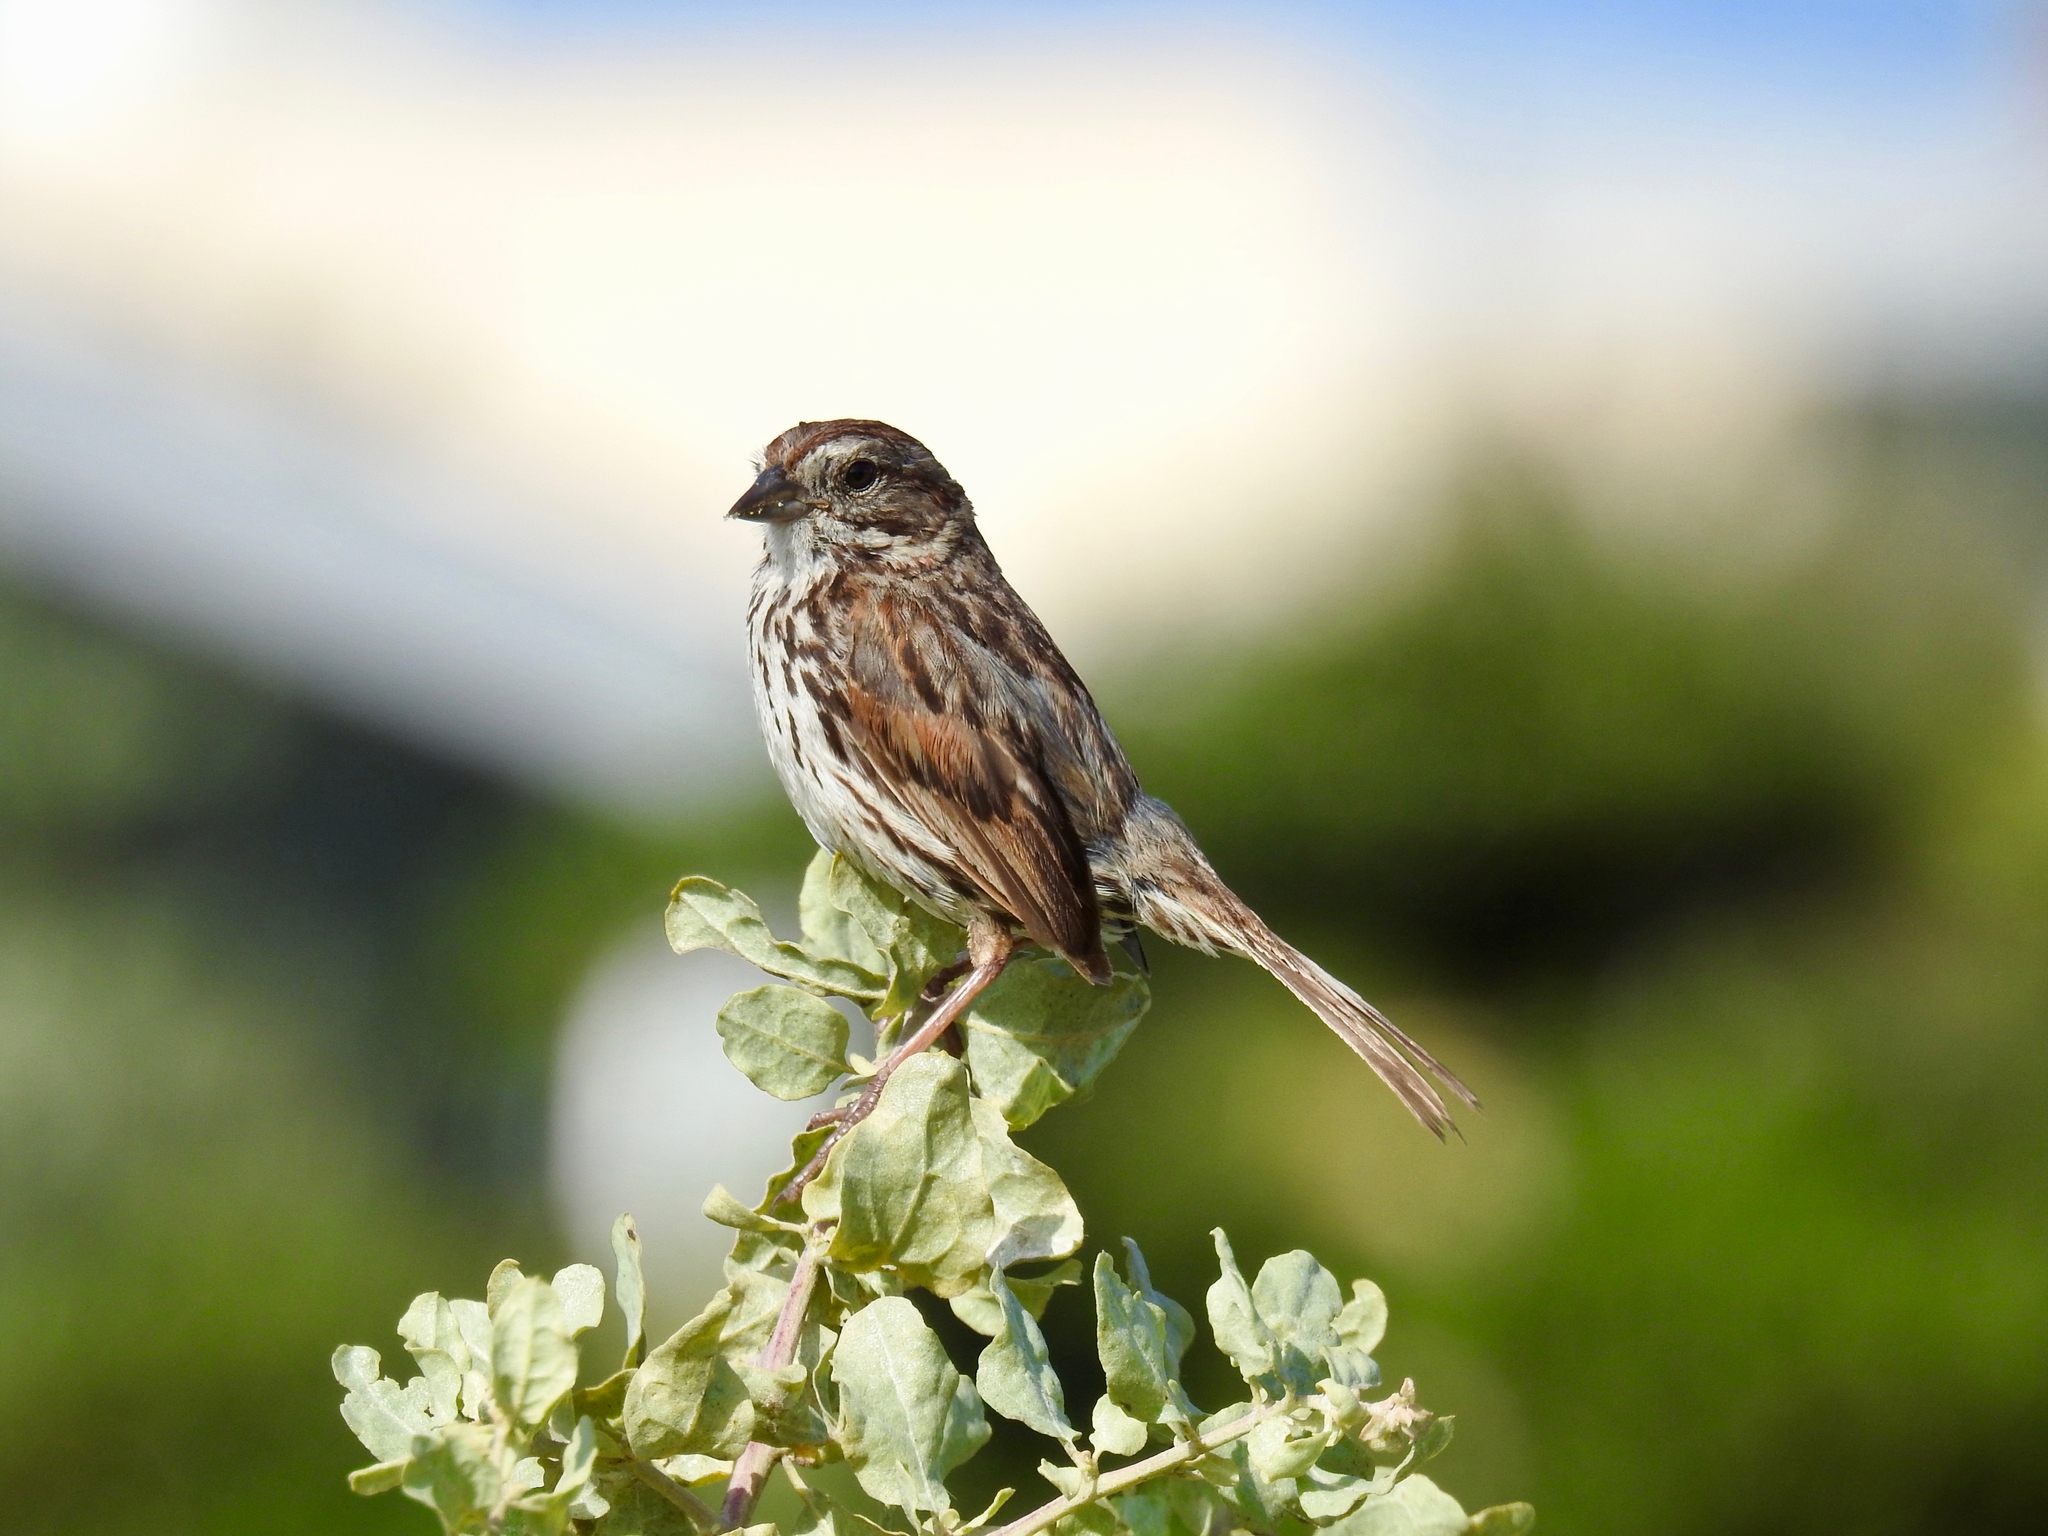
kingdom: Animalia
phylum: Chordata
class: Aves
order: Passeriformes
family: Passerellidae
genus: Melospiza
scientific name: Melospiza melodia
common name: Song sparrow
